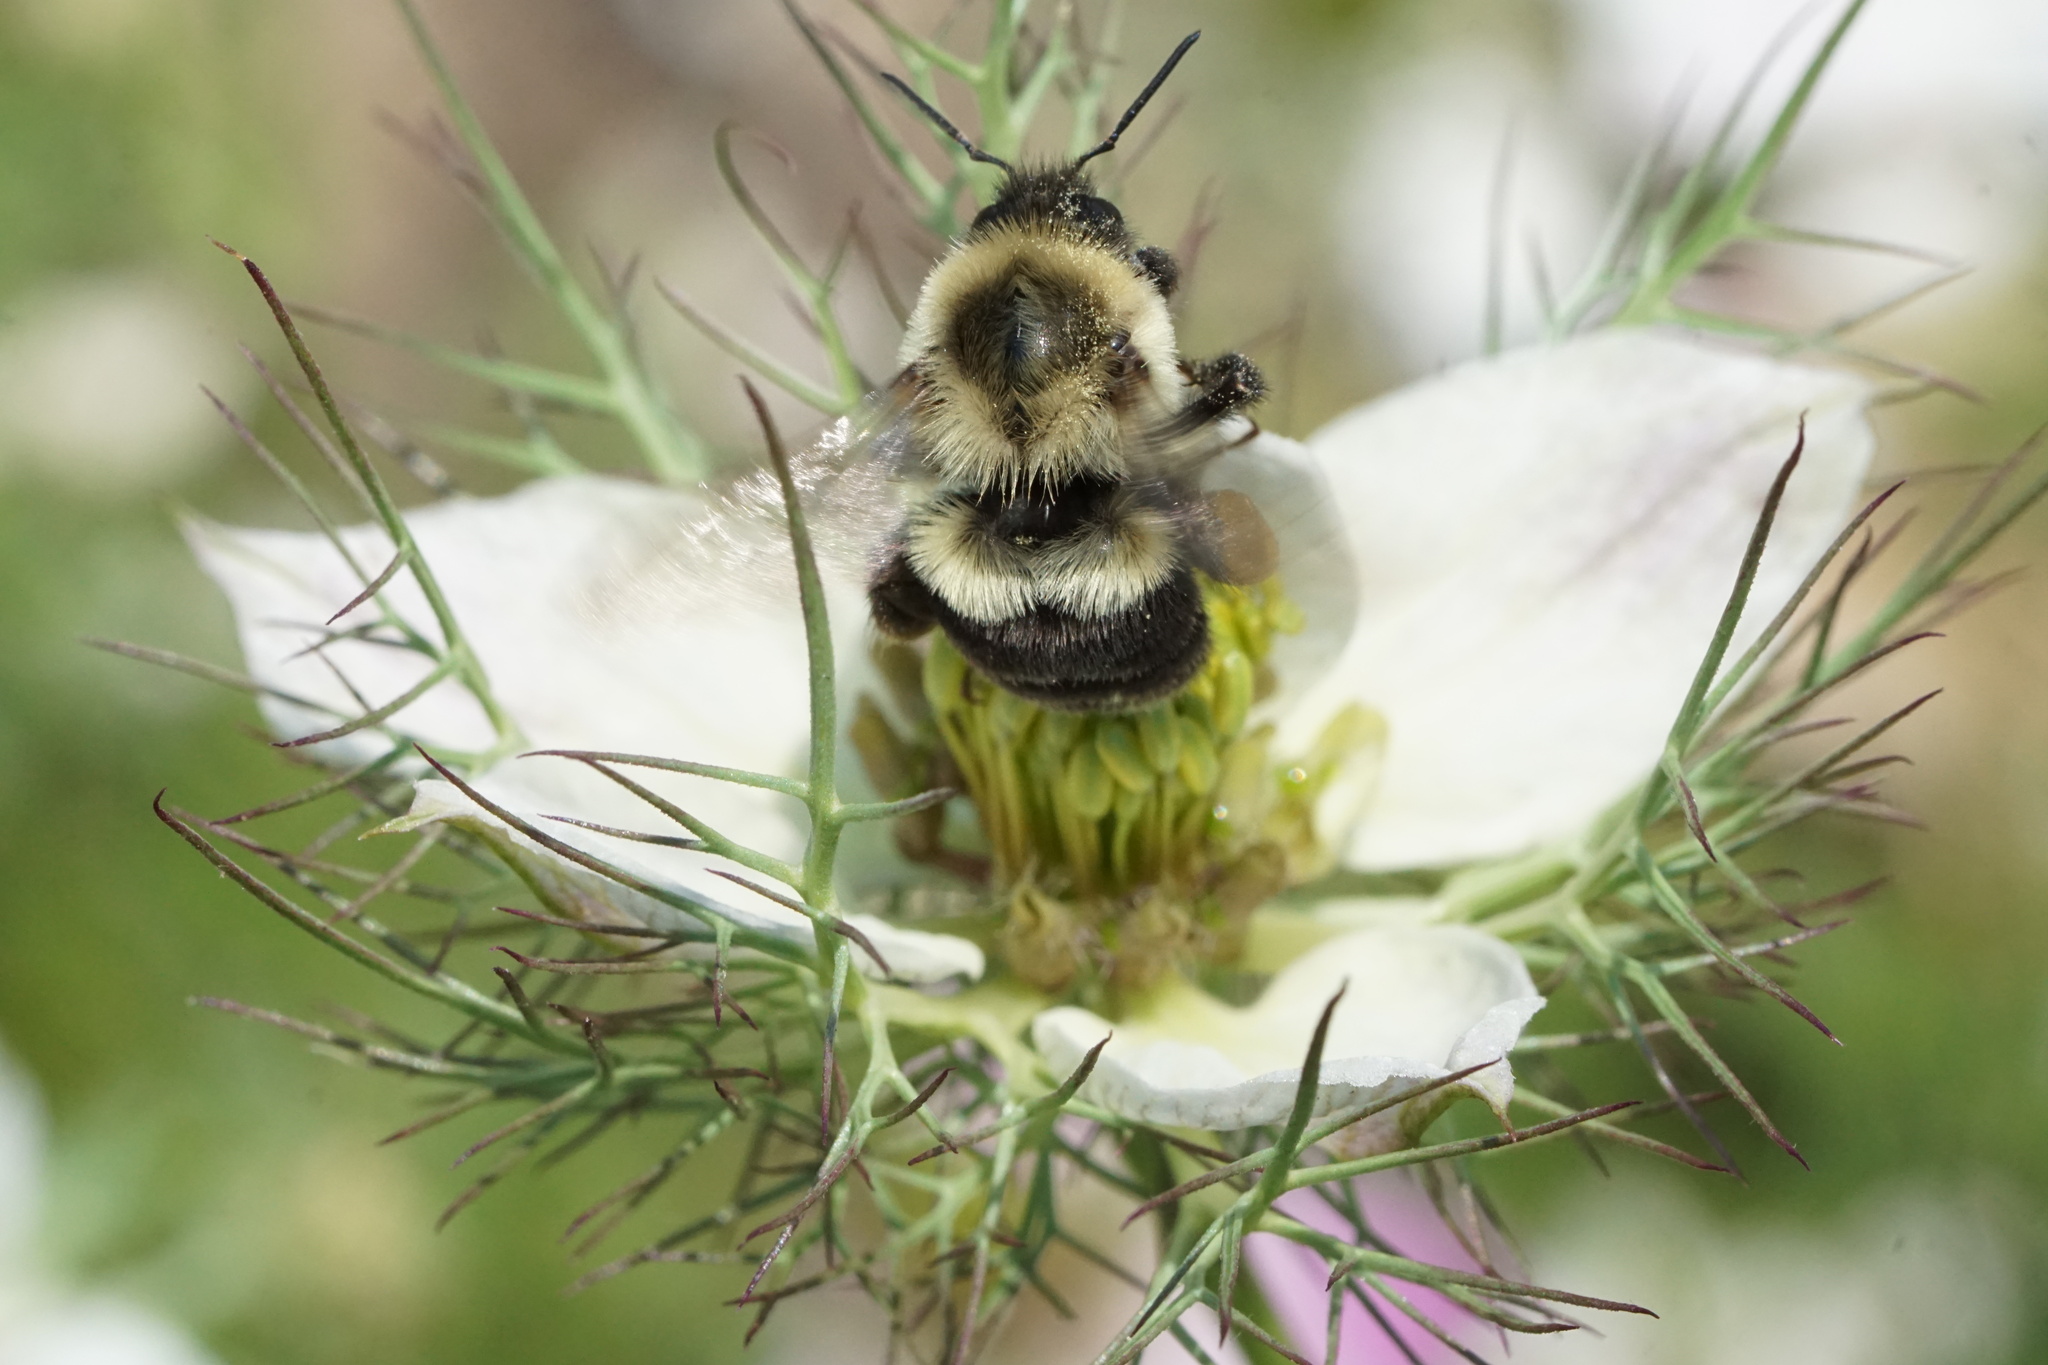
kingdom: Animalia
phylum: Arthropoda
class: Insecta
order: Hymenoptera
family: Apidae
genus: Bombus
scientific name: Bombus impatiens
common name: Common eastern bumble bee
